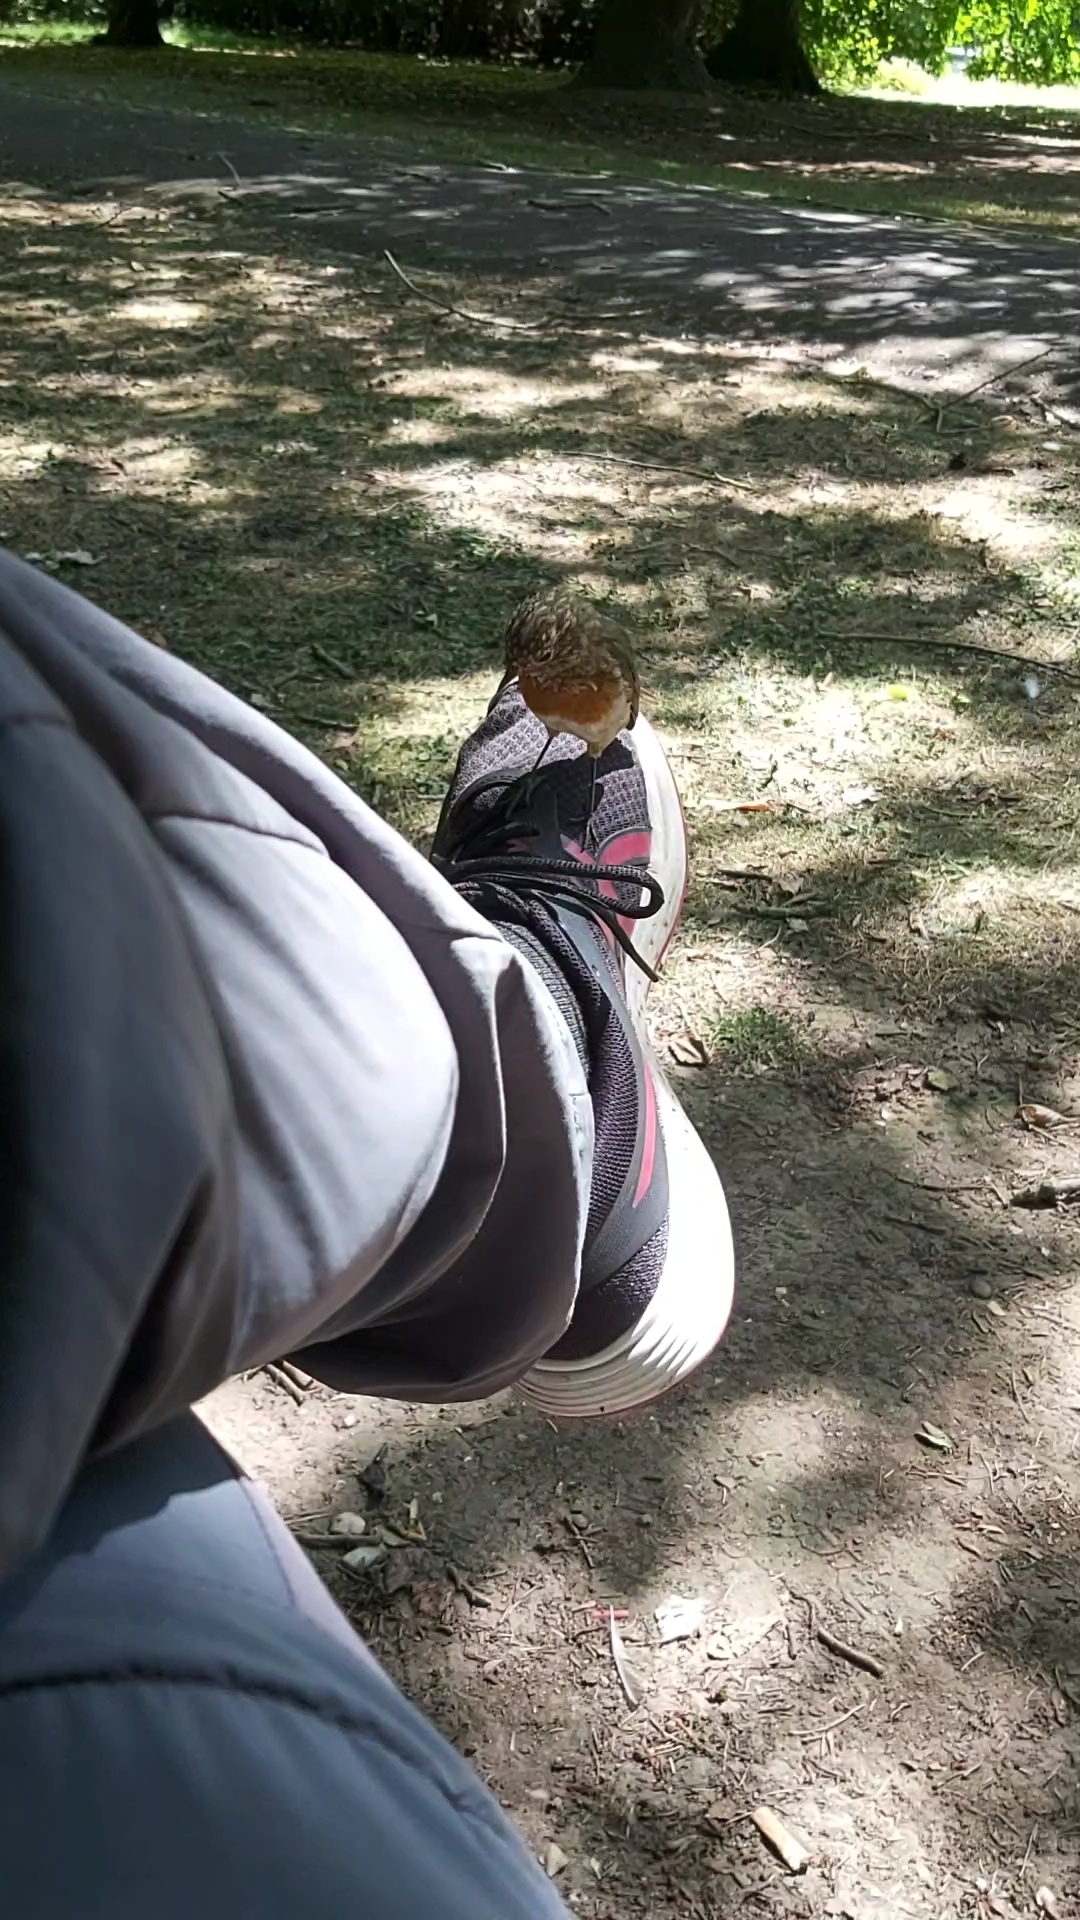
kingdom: Animalia
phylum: Chordata
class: Aves
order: Passeriformes
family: Muscicapidae
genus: Erithacus
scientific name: Erithacus rubecula
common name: European robin
